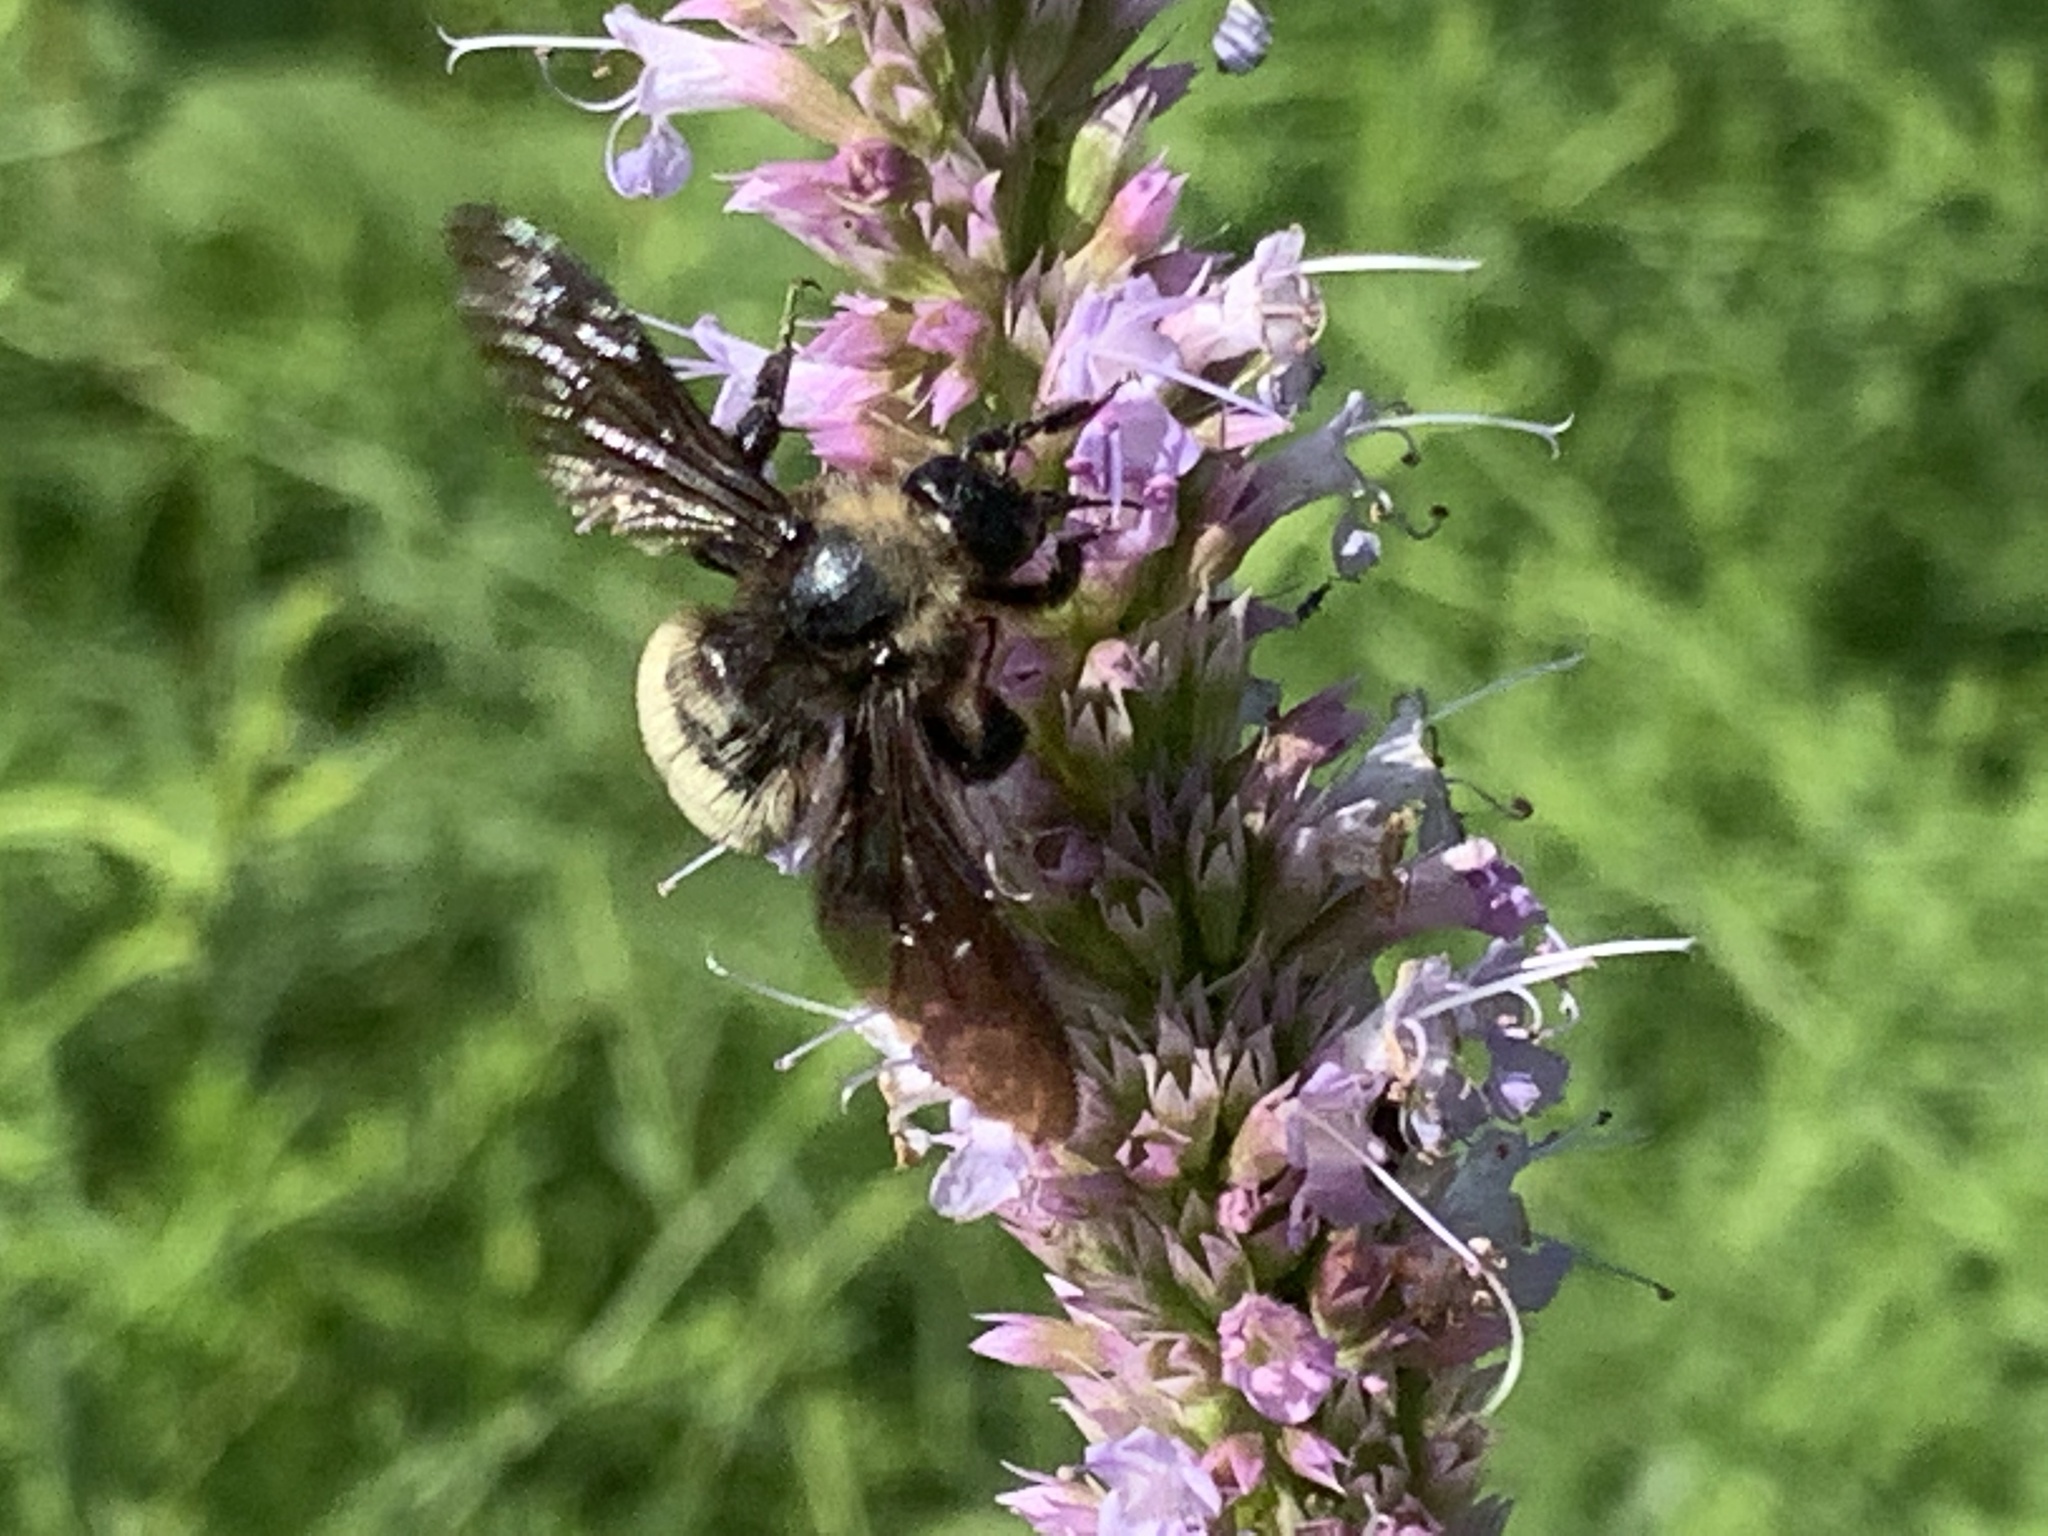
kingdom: Animalia
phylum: Arthropoda
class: Insecta
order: Hymenoptera
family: Apidae
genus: Bombus
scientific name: Bombus pensylvanicus
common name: Bumble bee
